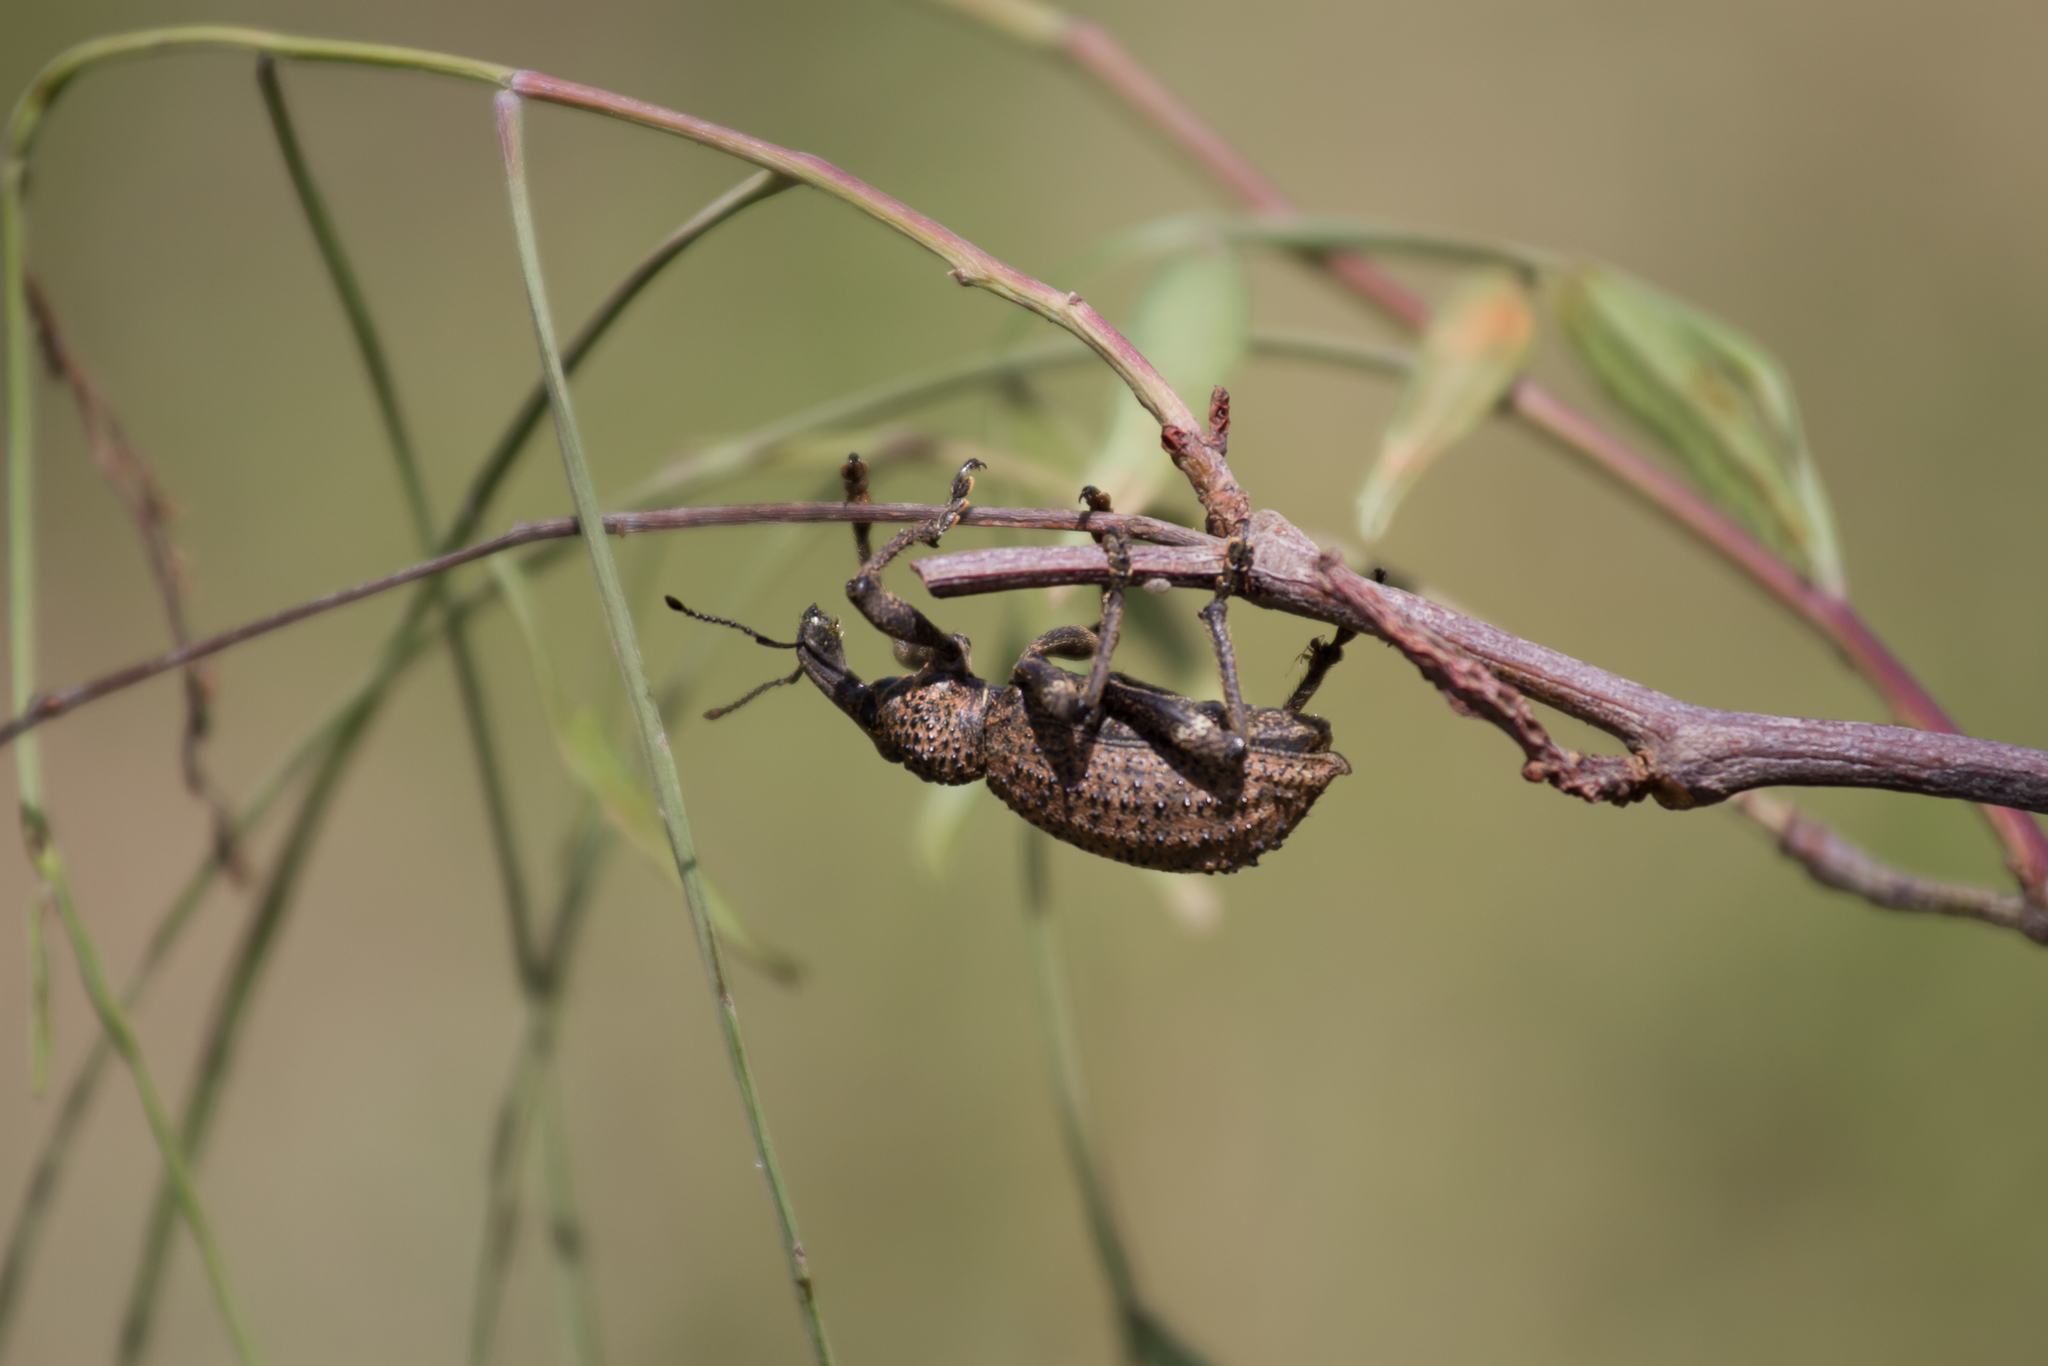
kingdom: Animalia
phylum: Arthropoda
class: Insecta
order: Coleoptera
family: Curculionidae
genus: Bronchus
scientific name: Bronchus
